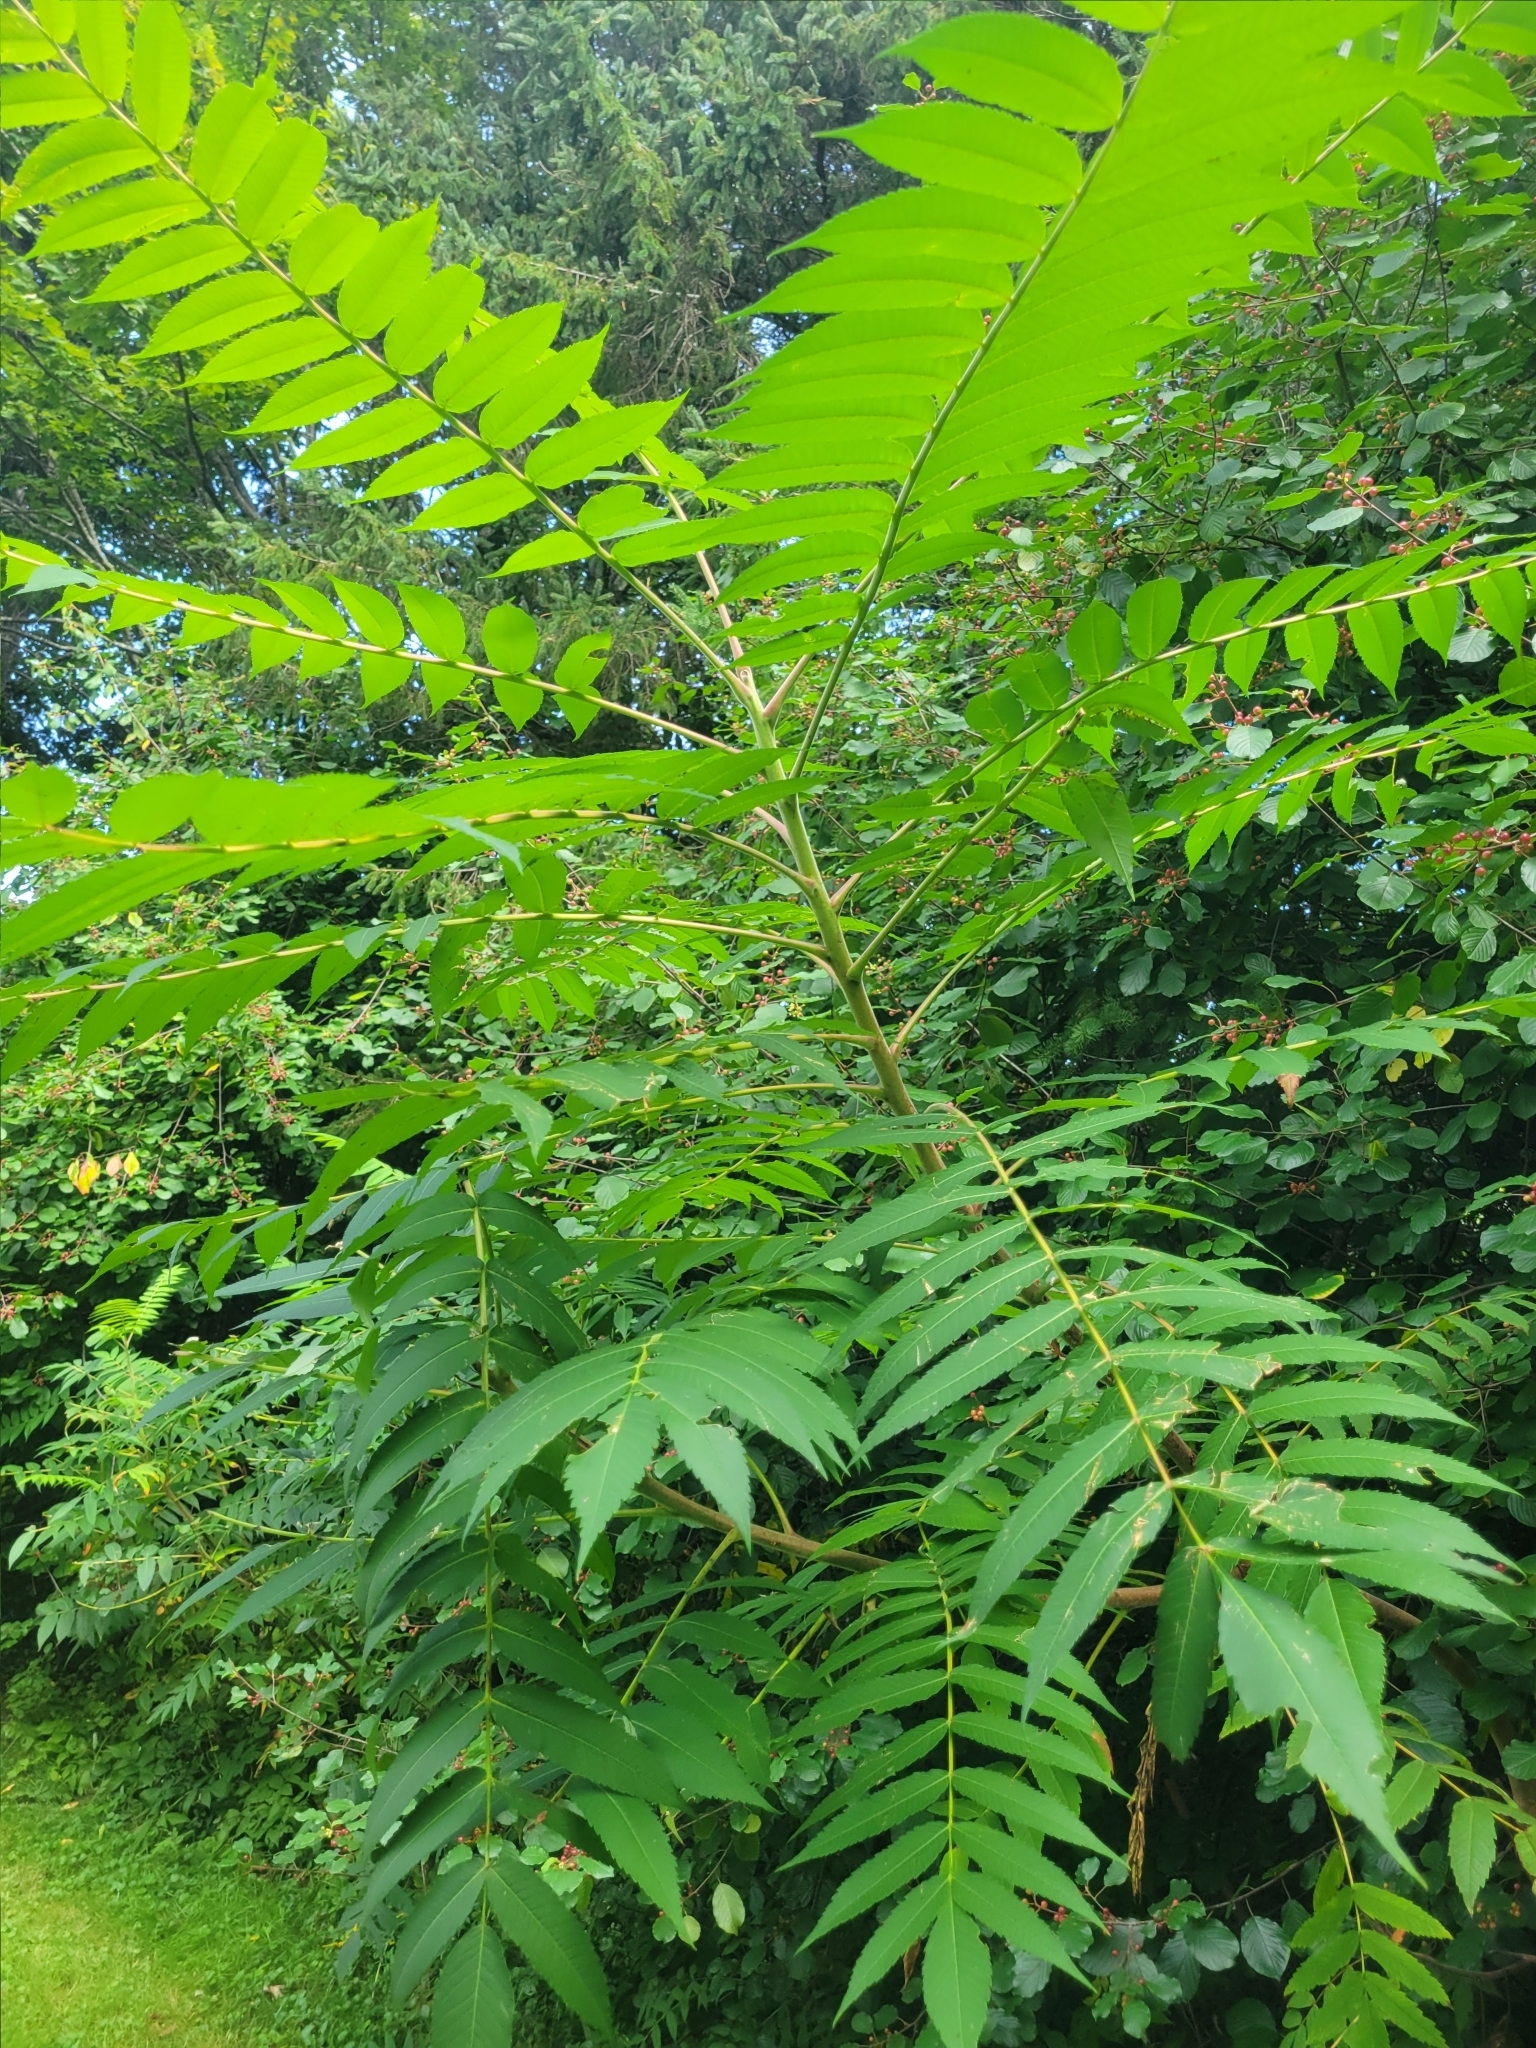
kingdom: Plantae
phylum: Tracheophyta
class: Magnoliopsida
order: Sapindales
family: Anacardiaceae
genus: Rhus
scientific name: Rhus typhina
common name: Staghorn sumac
